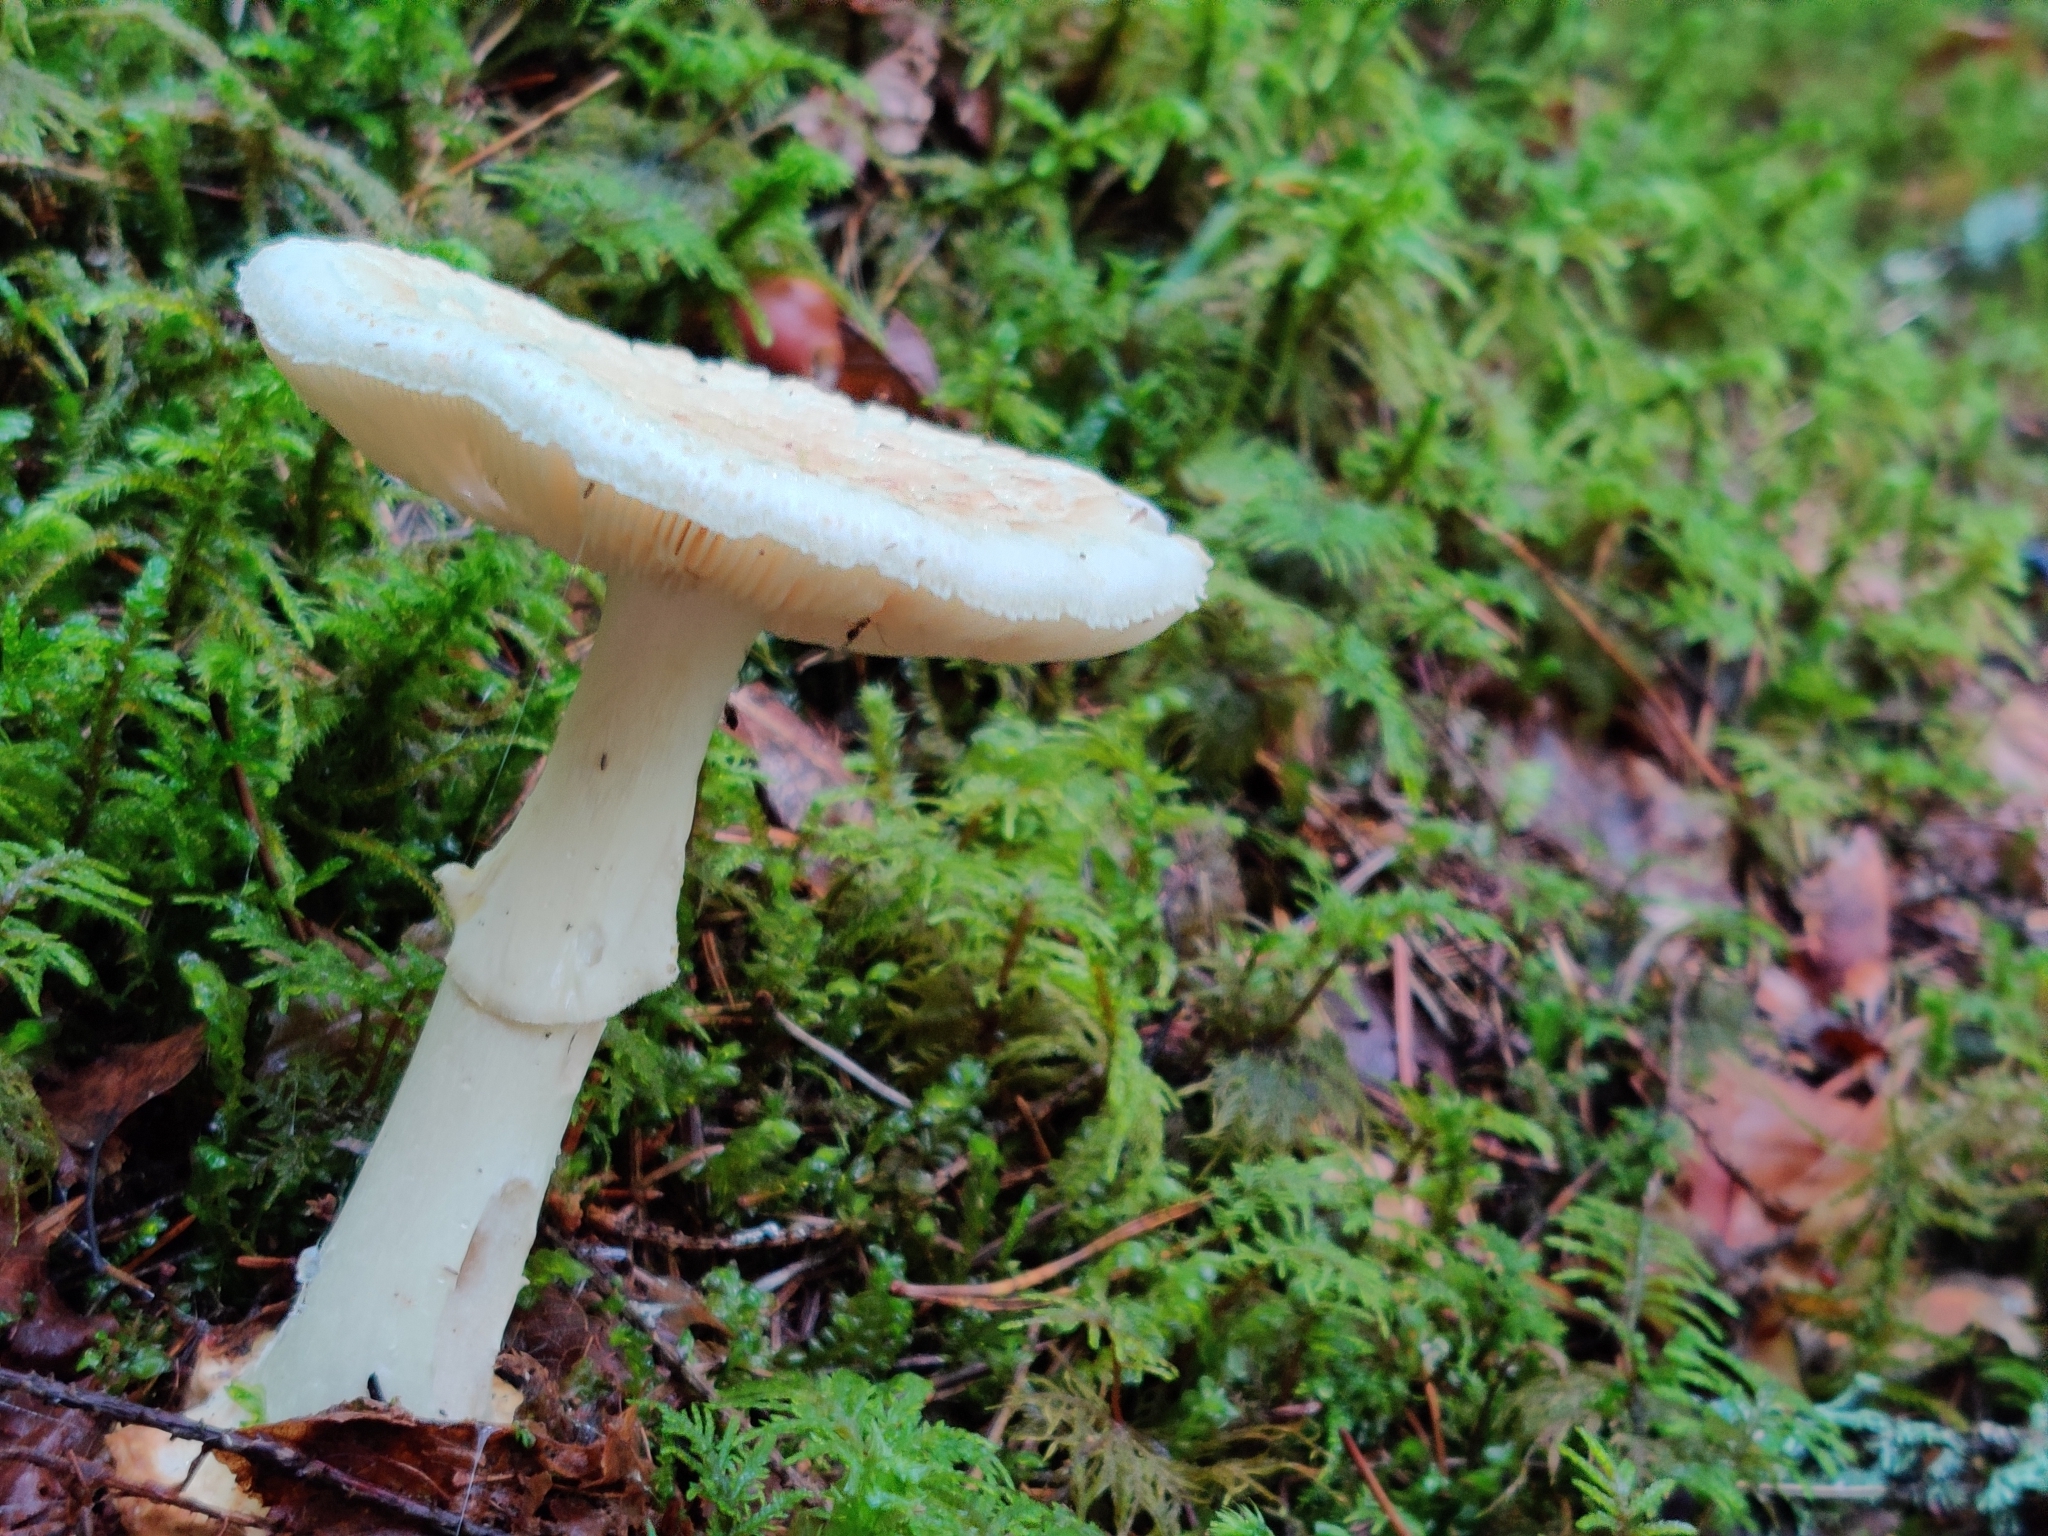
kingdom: Fungi
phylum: Basidiomycota
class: Agaricomycetes
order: Agaricales
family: Amanitaceae
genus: Amanita
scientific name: Amanita citrina
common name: False death-cap
